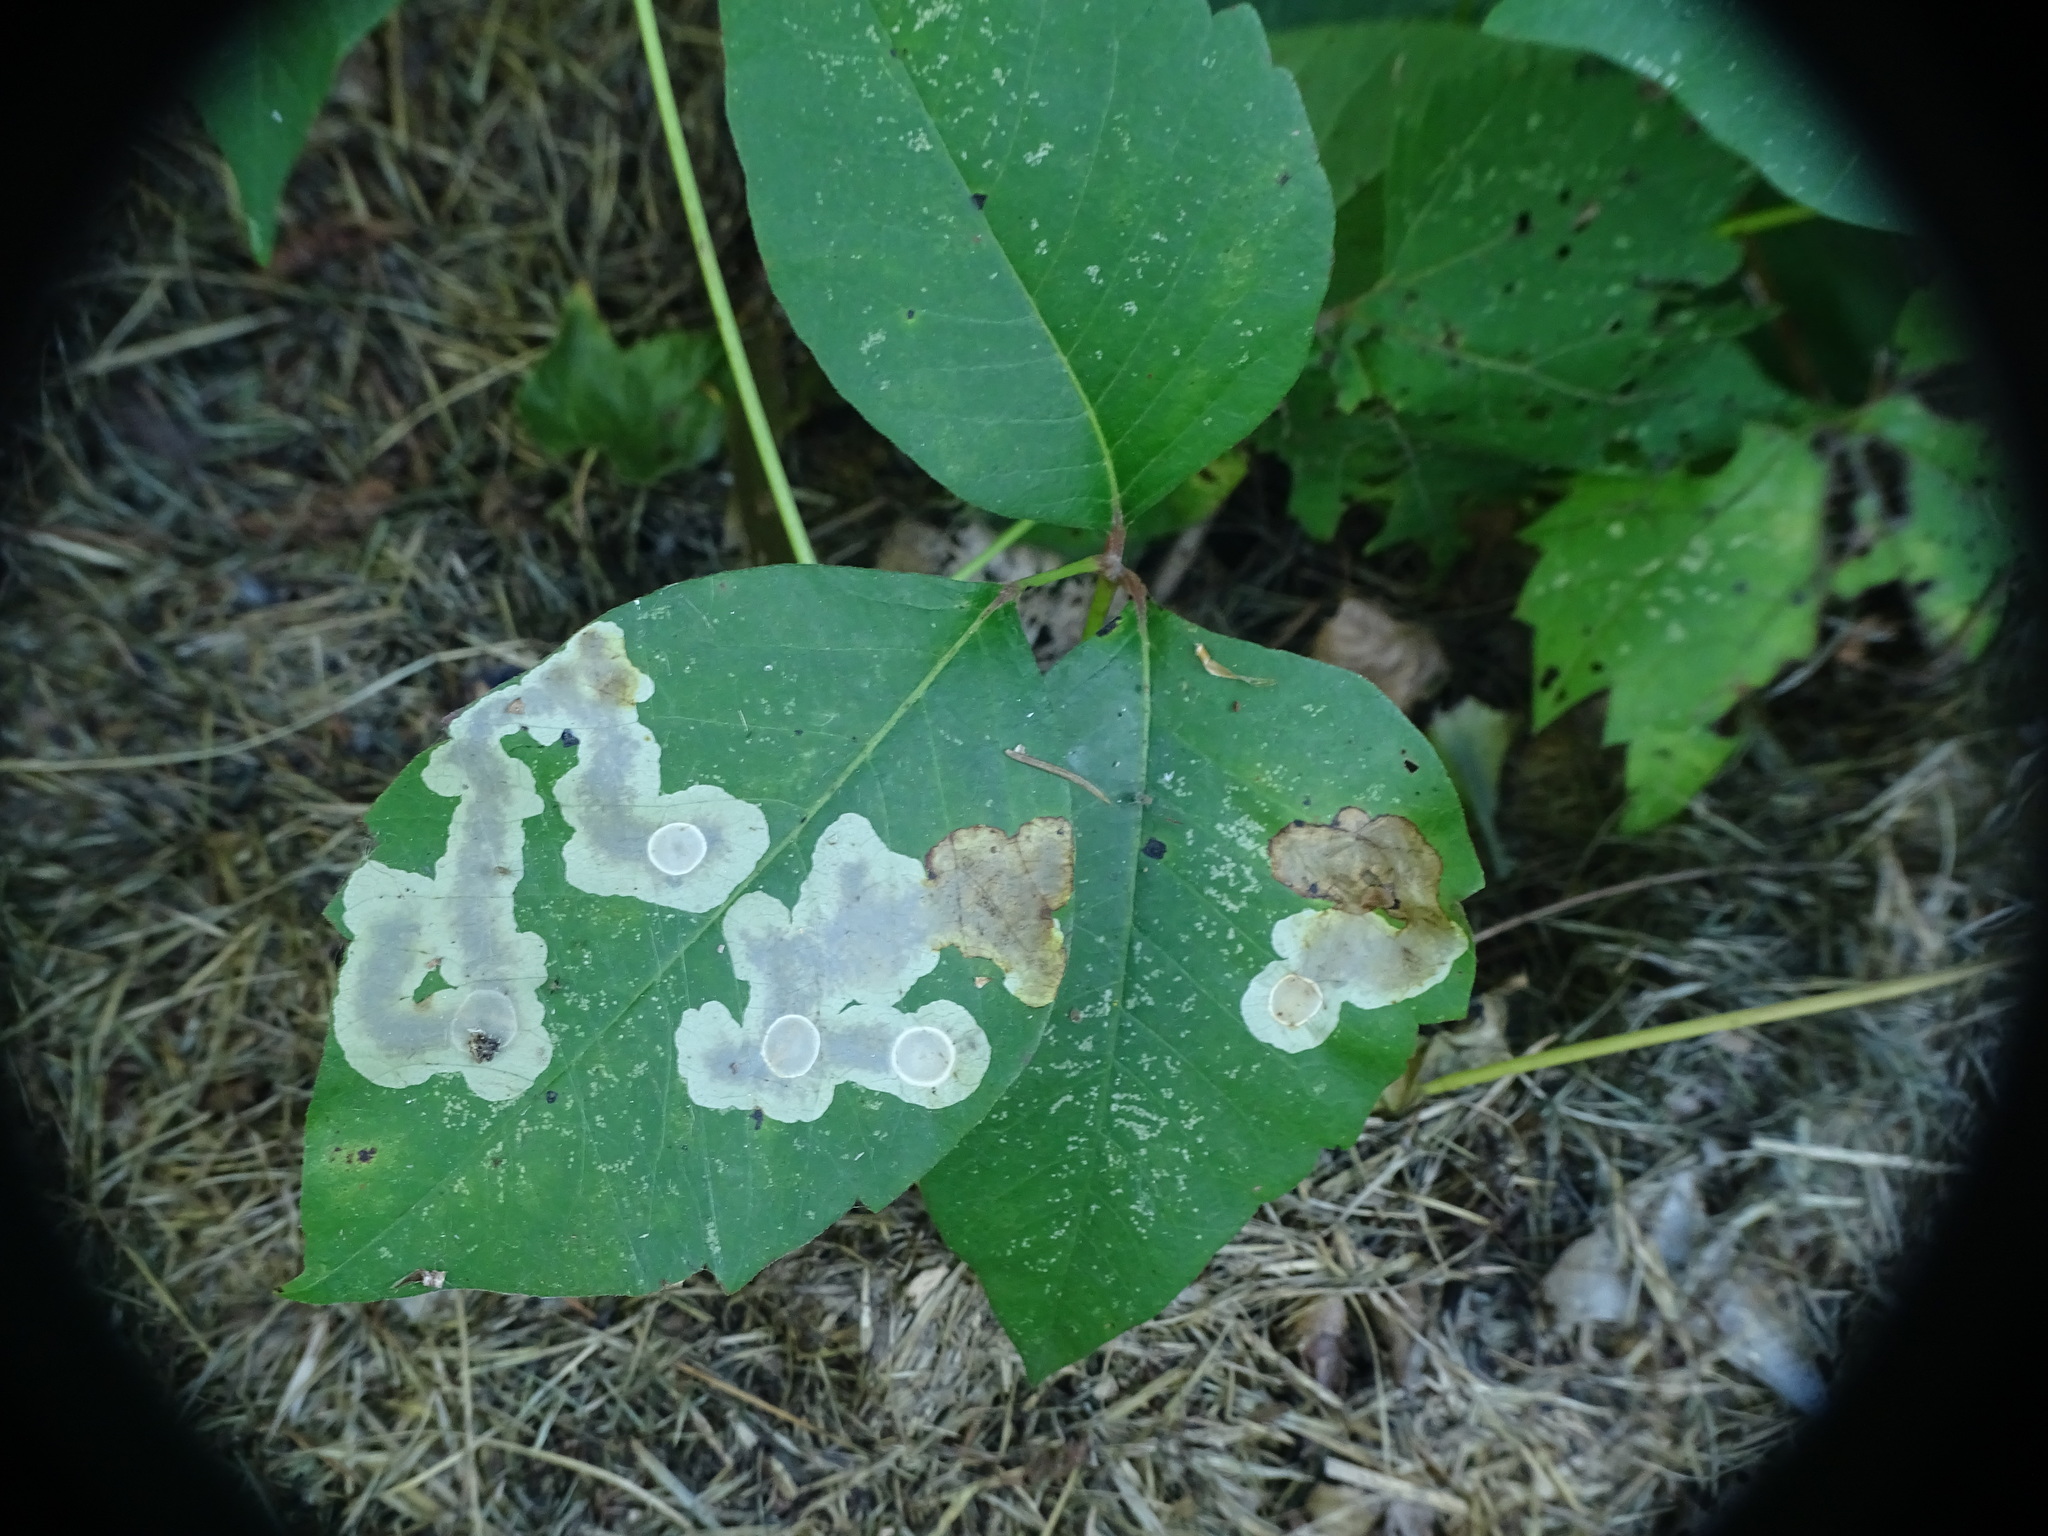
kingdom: Animalia
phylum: Arthropoda
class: Insecta
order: Lepidoptera
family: Gracillariidae
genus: Cameraria
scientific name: Cameraria guttifinitella
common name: Poison ivy leaf-miner moth
